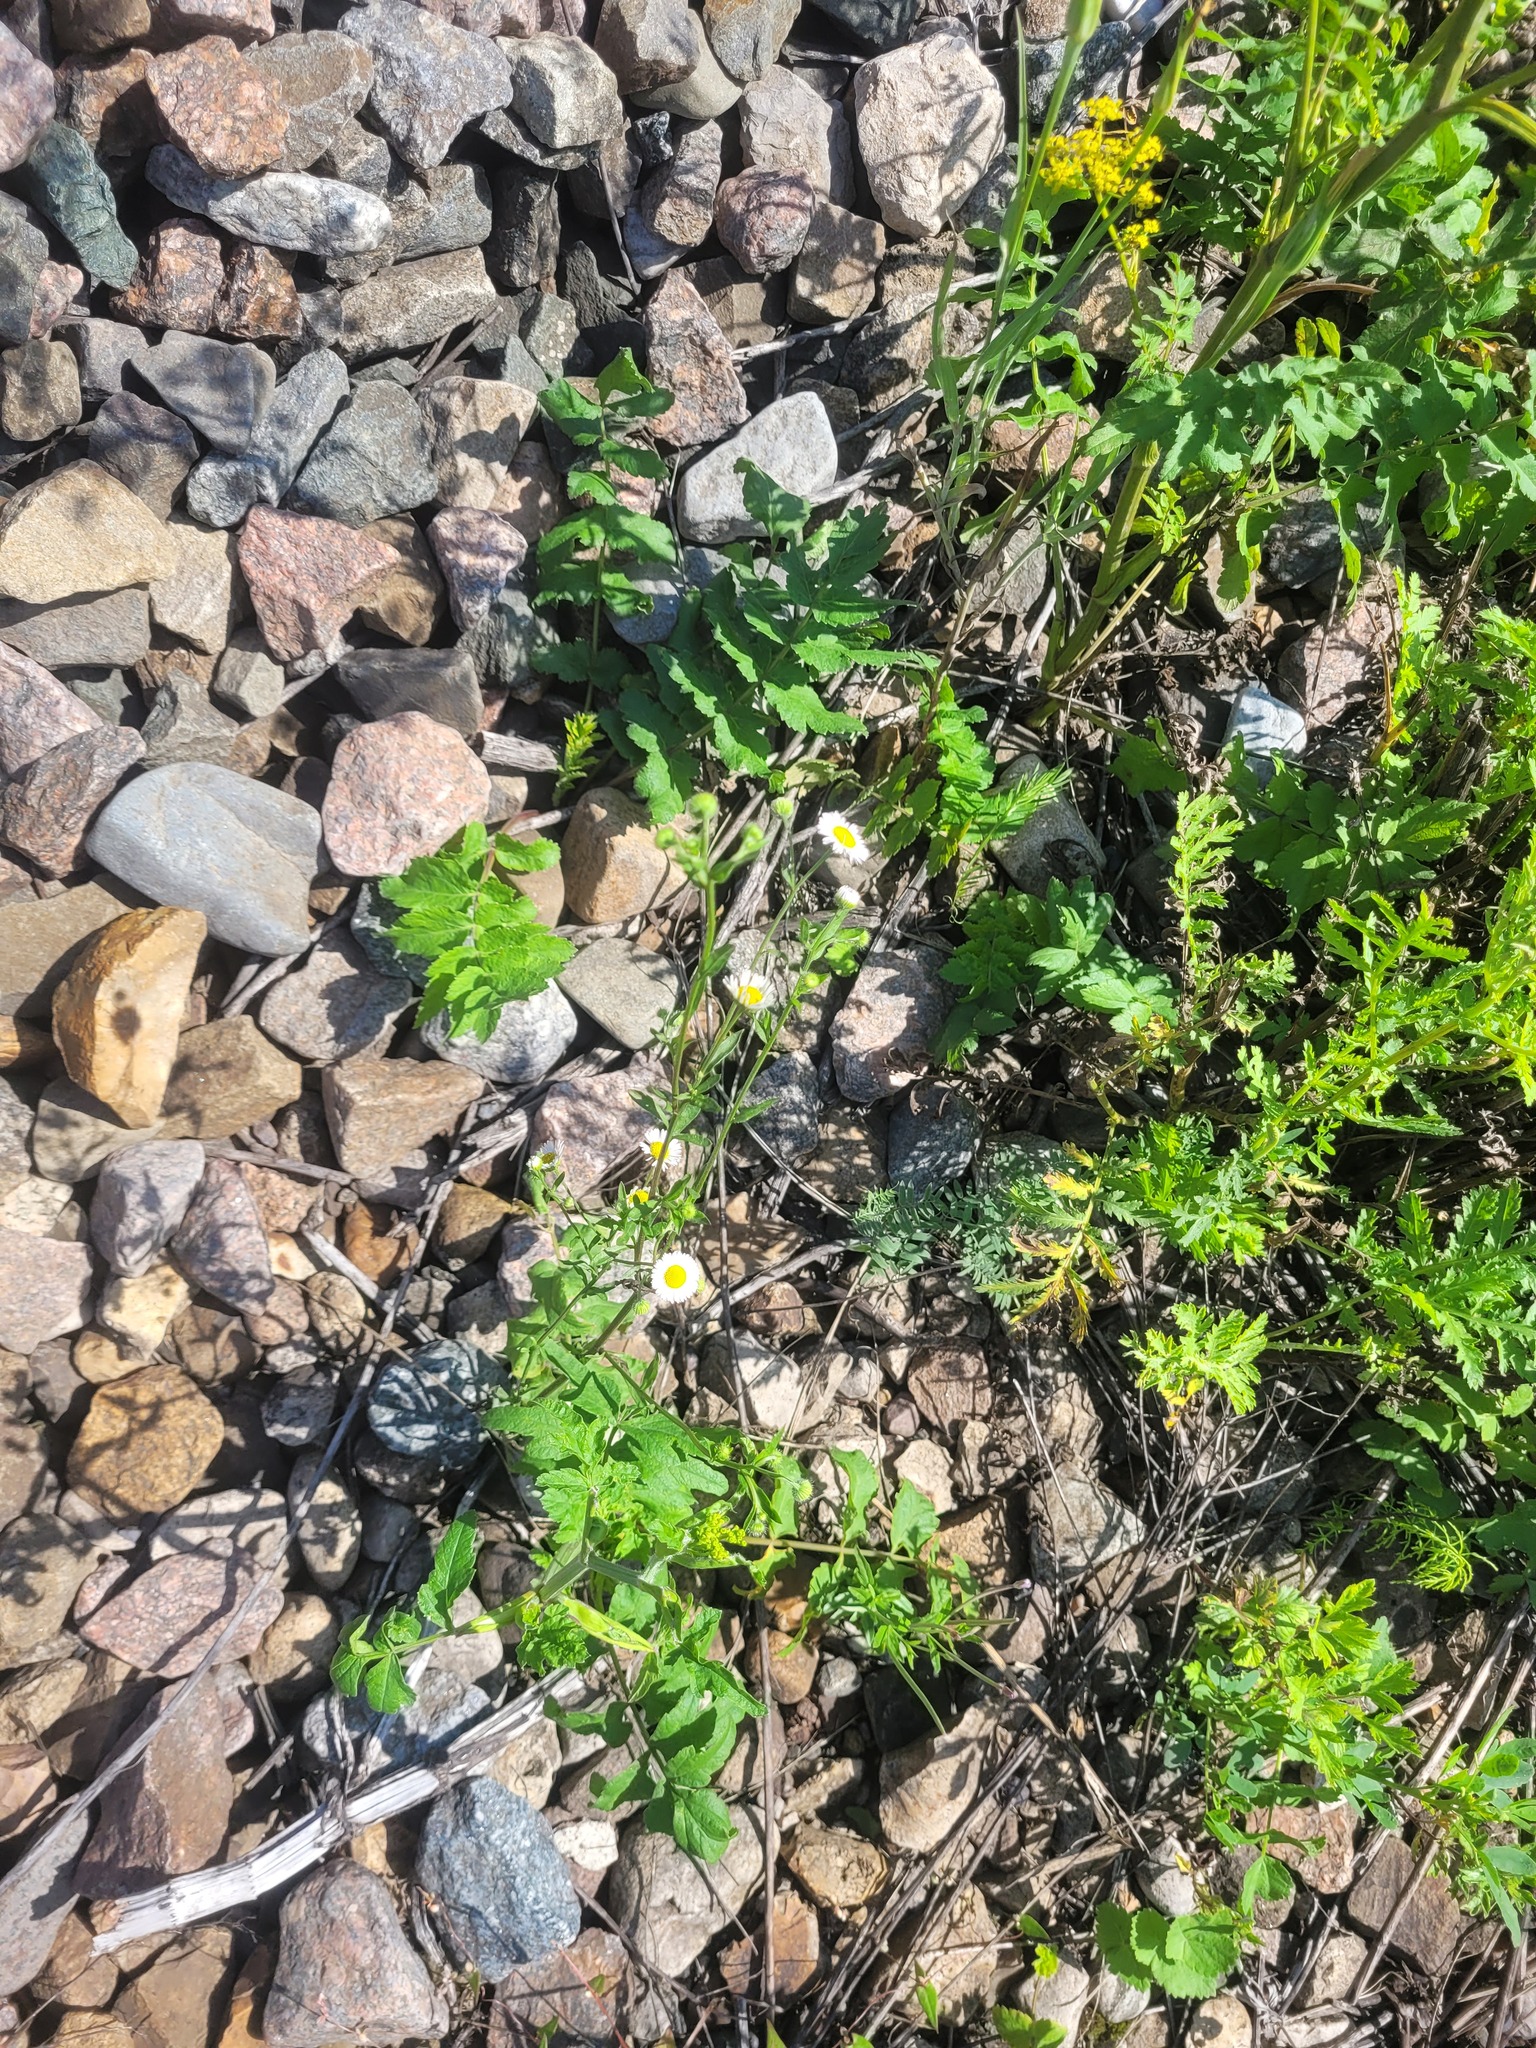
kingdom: Plantae
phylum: Tracheophyta
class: Magnoliopsida
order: Asterales
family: Asteraceae
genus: Erigeron
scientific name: Erigeron annuus
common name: Tall fleabane
